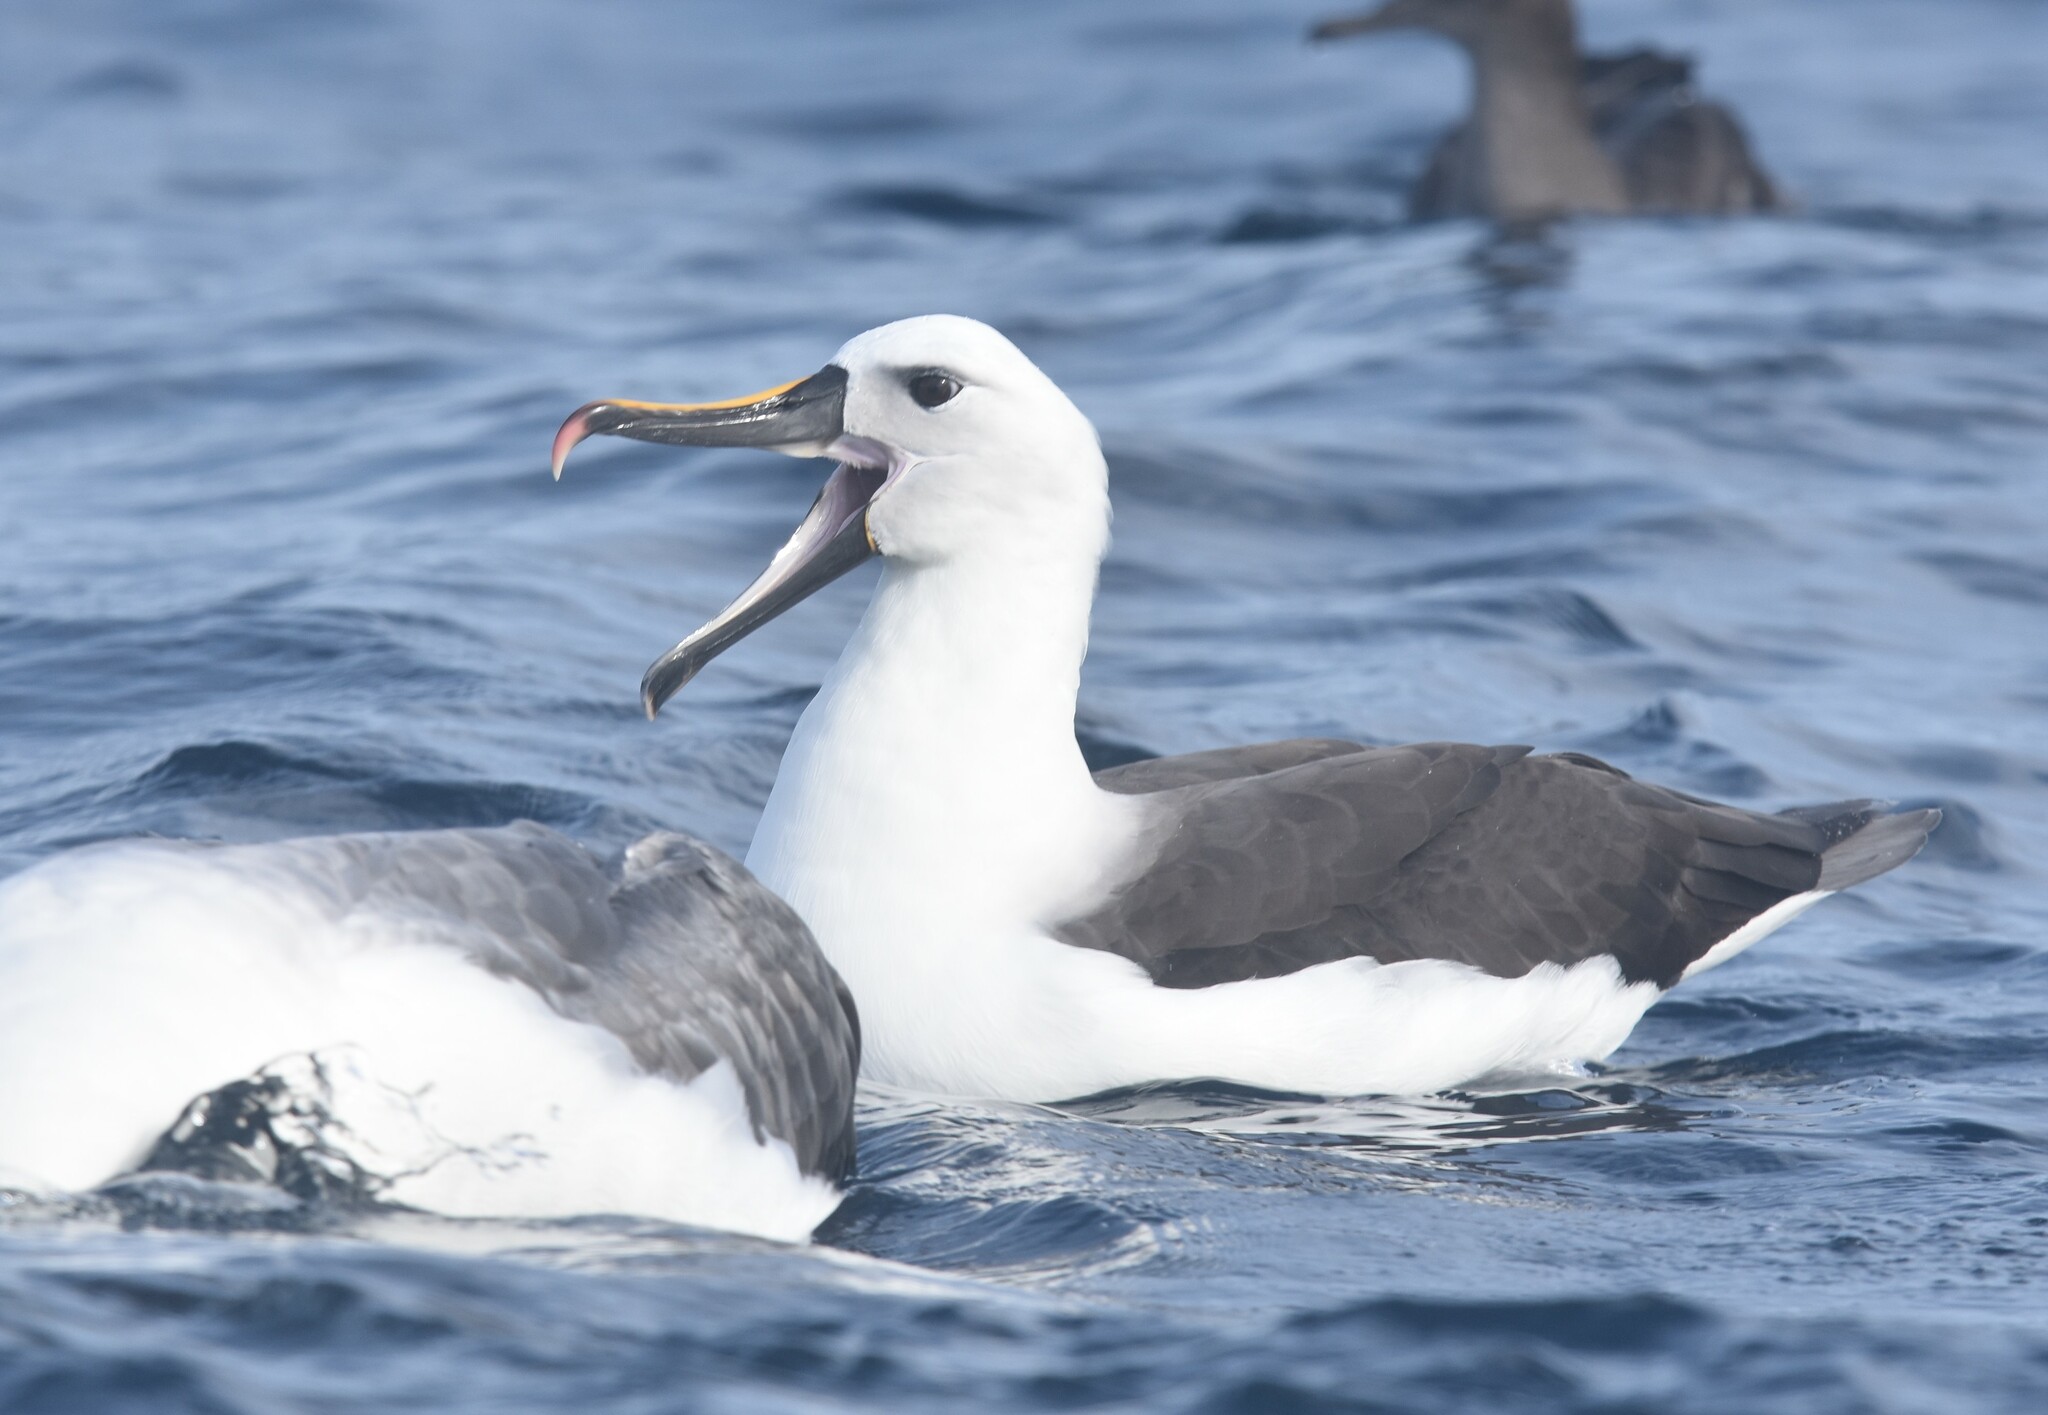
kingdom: Animalia
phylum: Chordata
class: Aves
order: Procellariiformes
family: Diomedeidae
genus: Thalassarche
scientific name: Thalassarche carteri
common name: Indian yellow-nosed albatross
